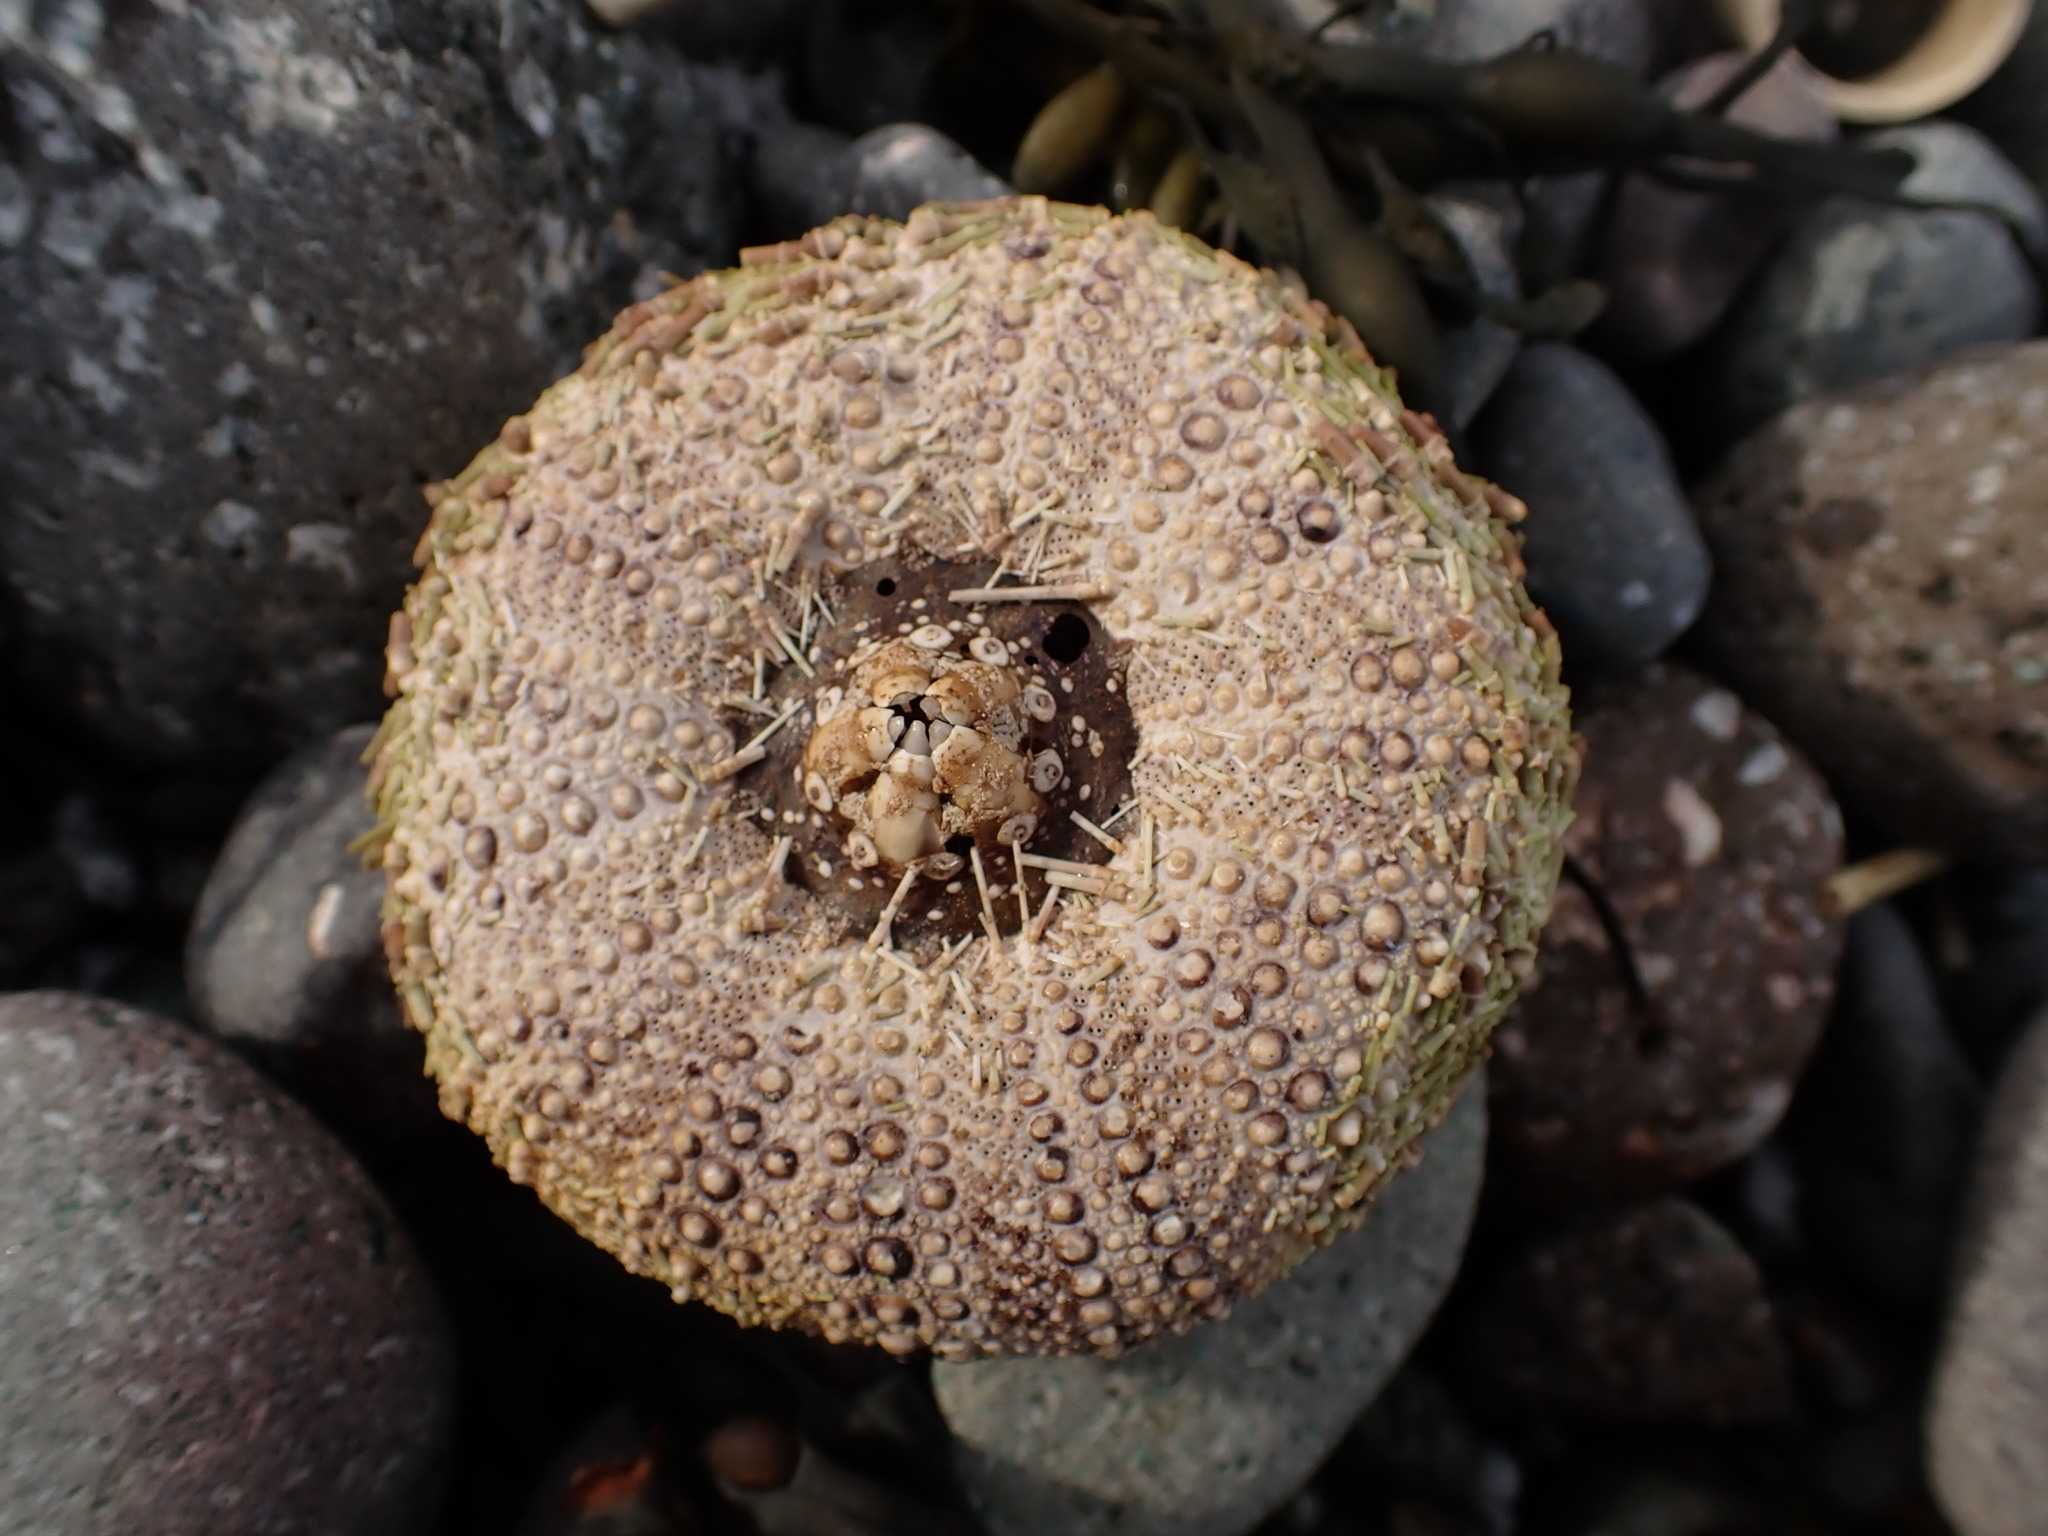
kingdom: Animalia
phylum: Echinodermata
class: Echinoidea
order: Camarodonta
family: Strongylocentrotidae
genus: Strongylocentrotus
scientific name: Strongylocentrotus droebachiensis
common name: Northern sea urchin
